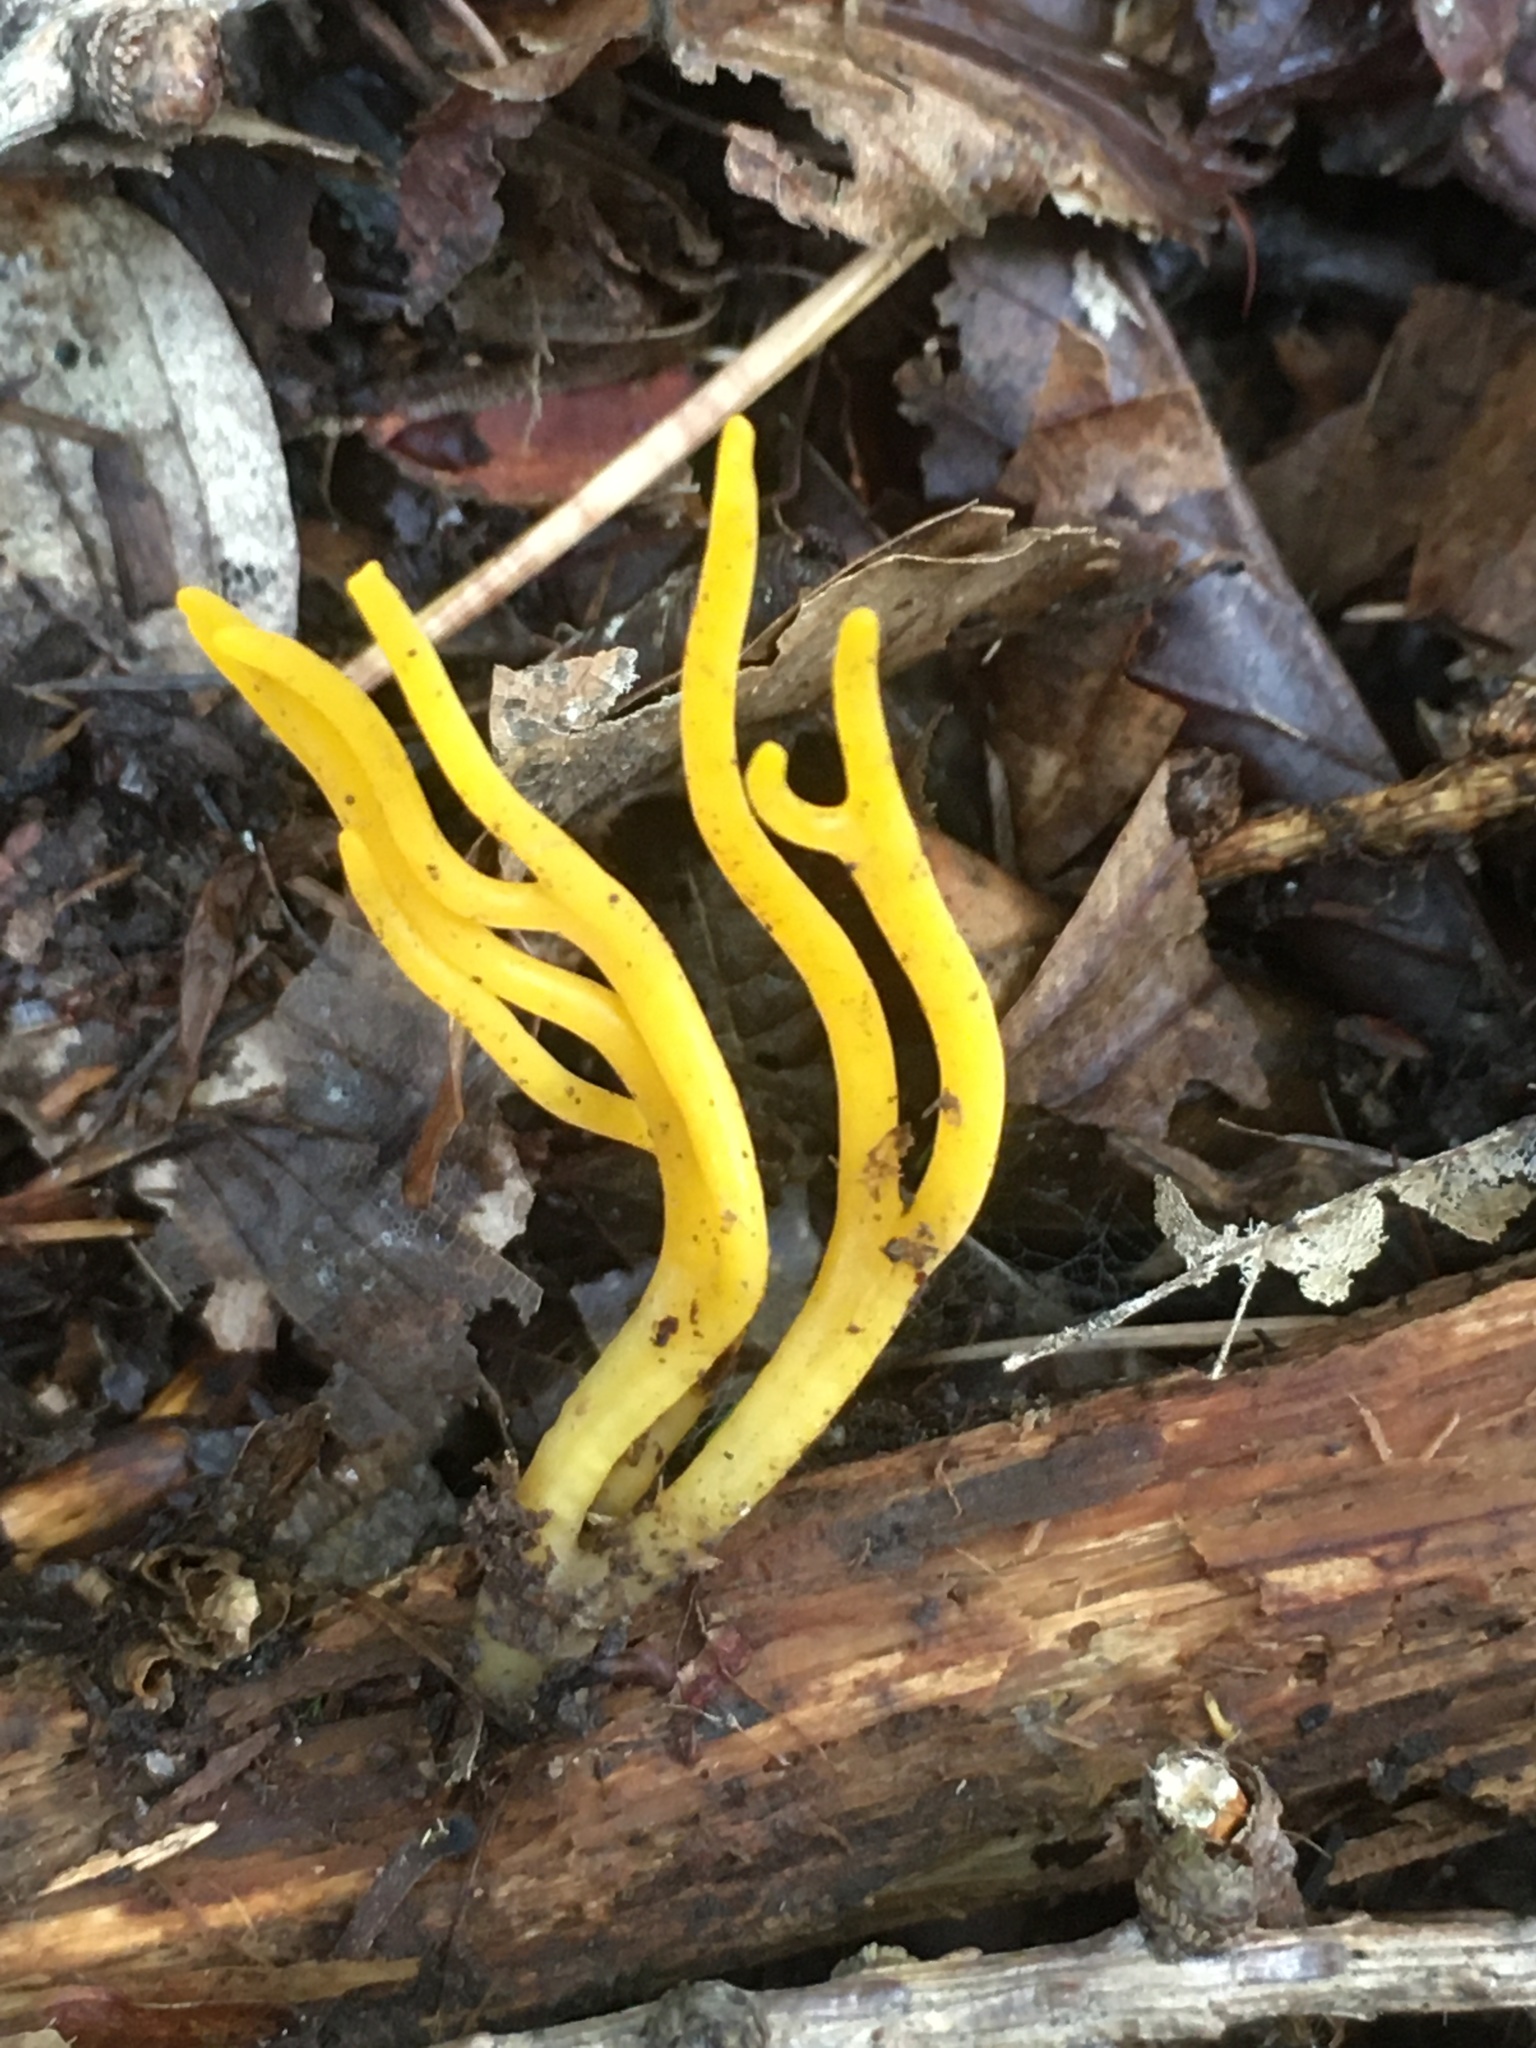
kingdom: Fungi
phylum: Basidiomycota
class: Dacrymycetes
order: Dacrymycetales
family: Dacrymycetaceae
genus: Calocera
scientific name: Calocera viscosa
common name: Yellow stagshorn
